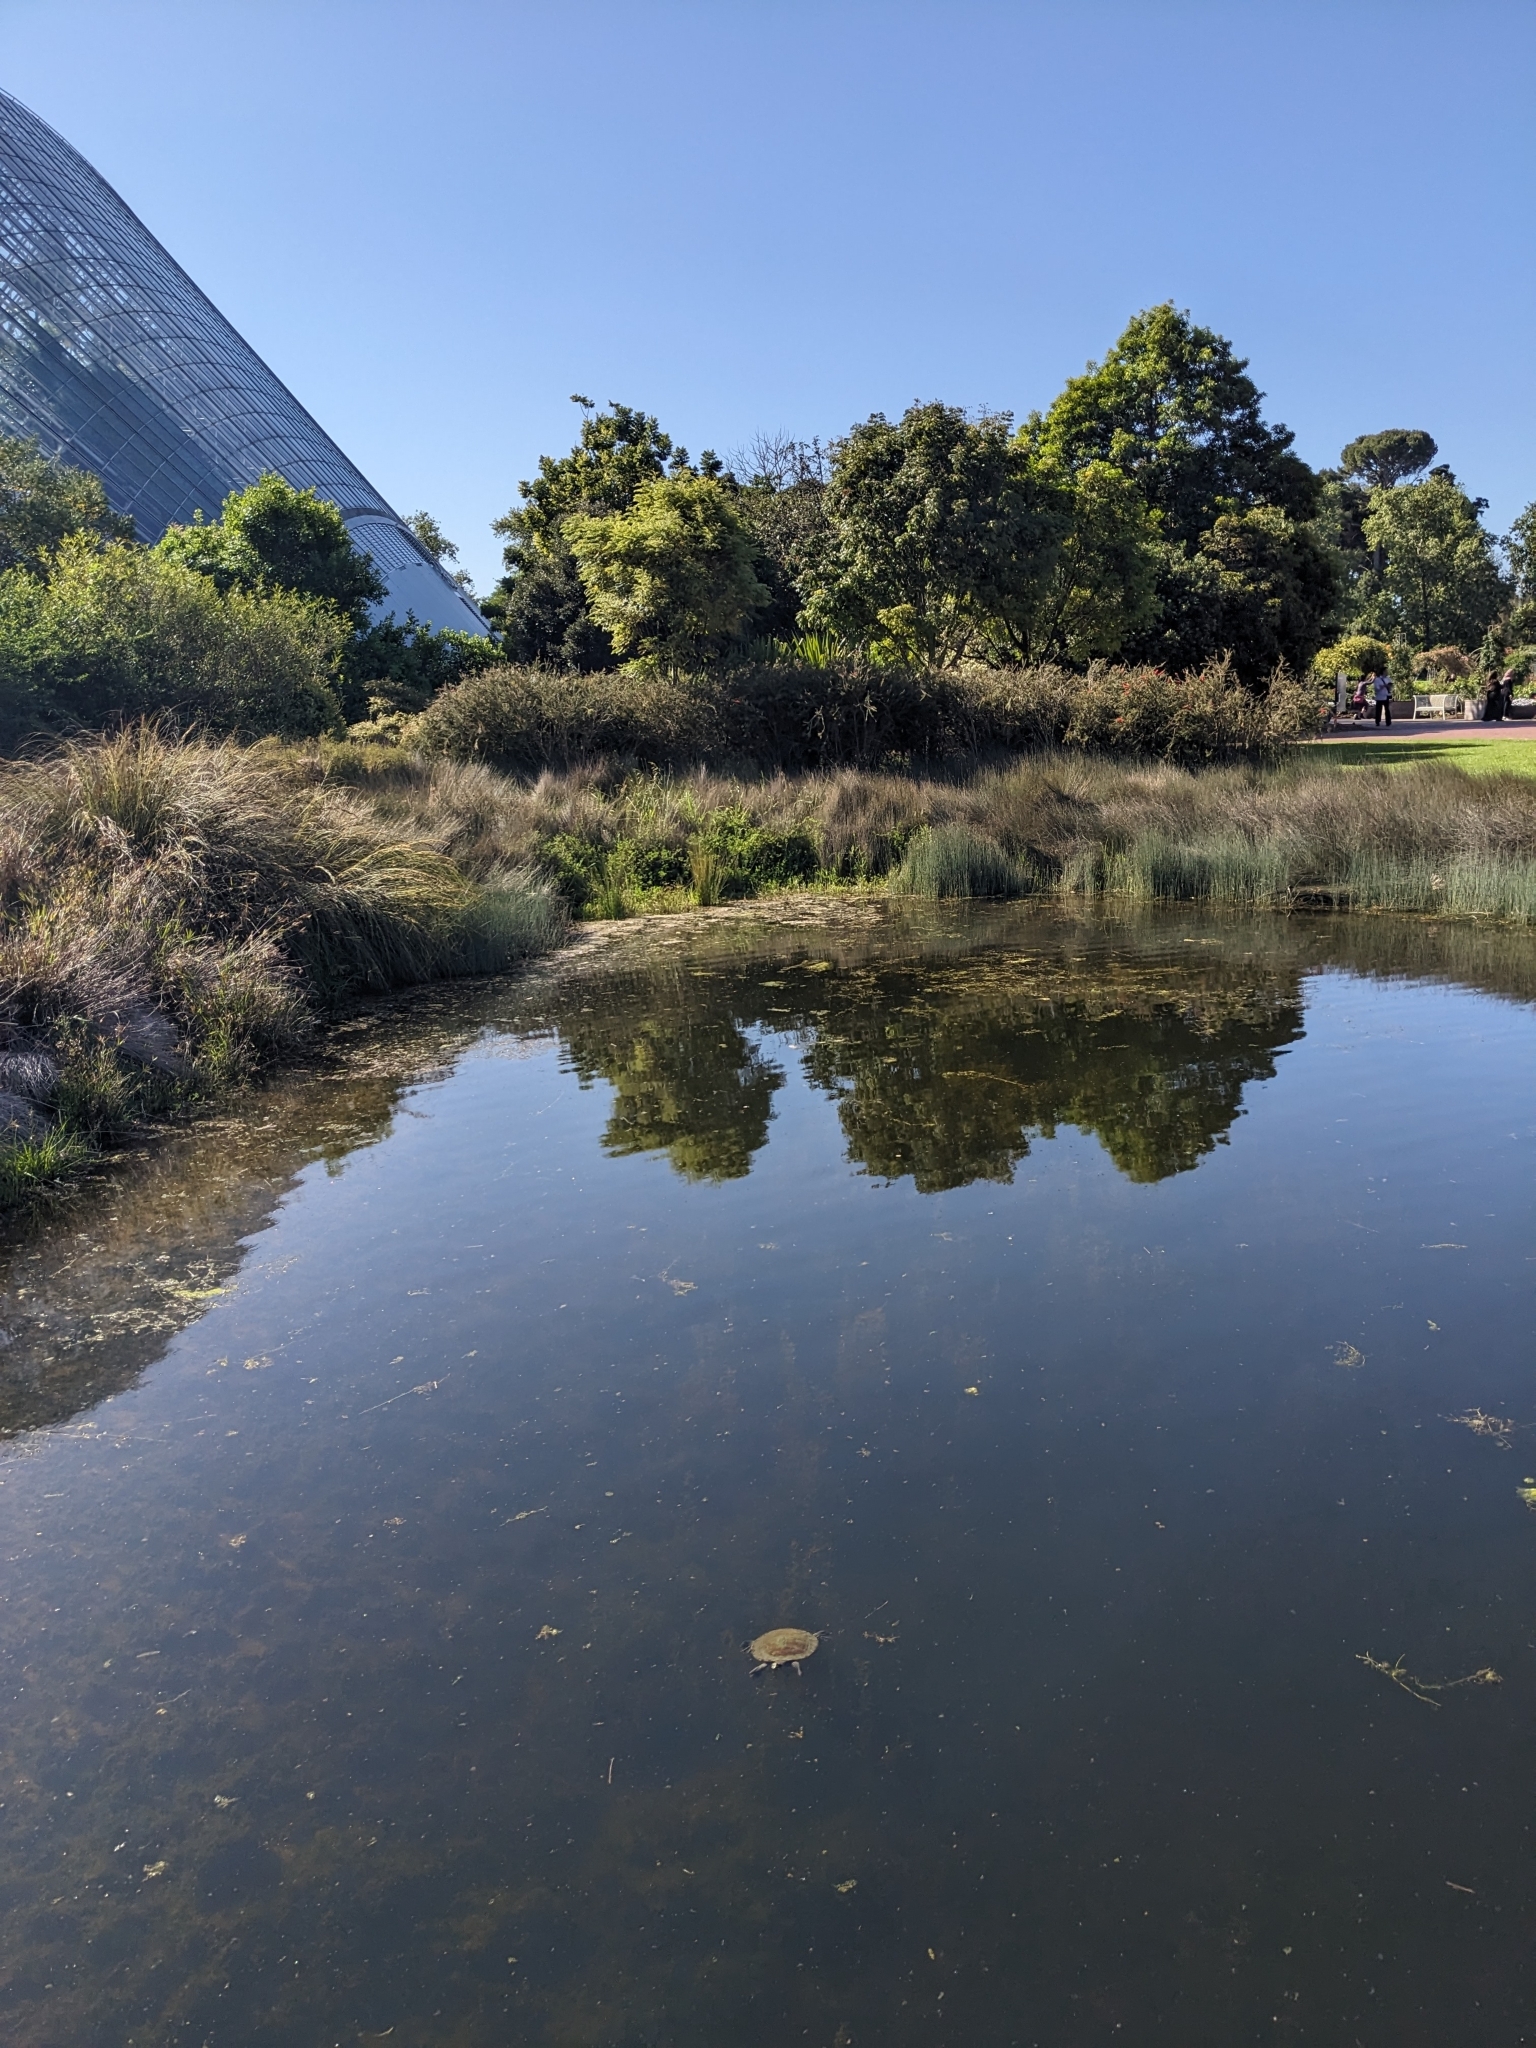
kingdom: Animalia
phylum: Chordata
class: Testudines
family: Chelidae
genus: Emydura
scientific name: Emydura macquarii
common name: Murray river turtle
